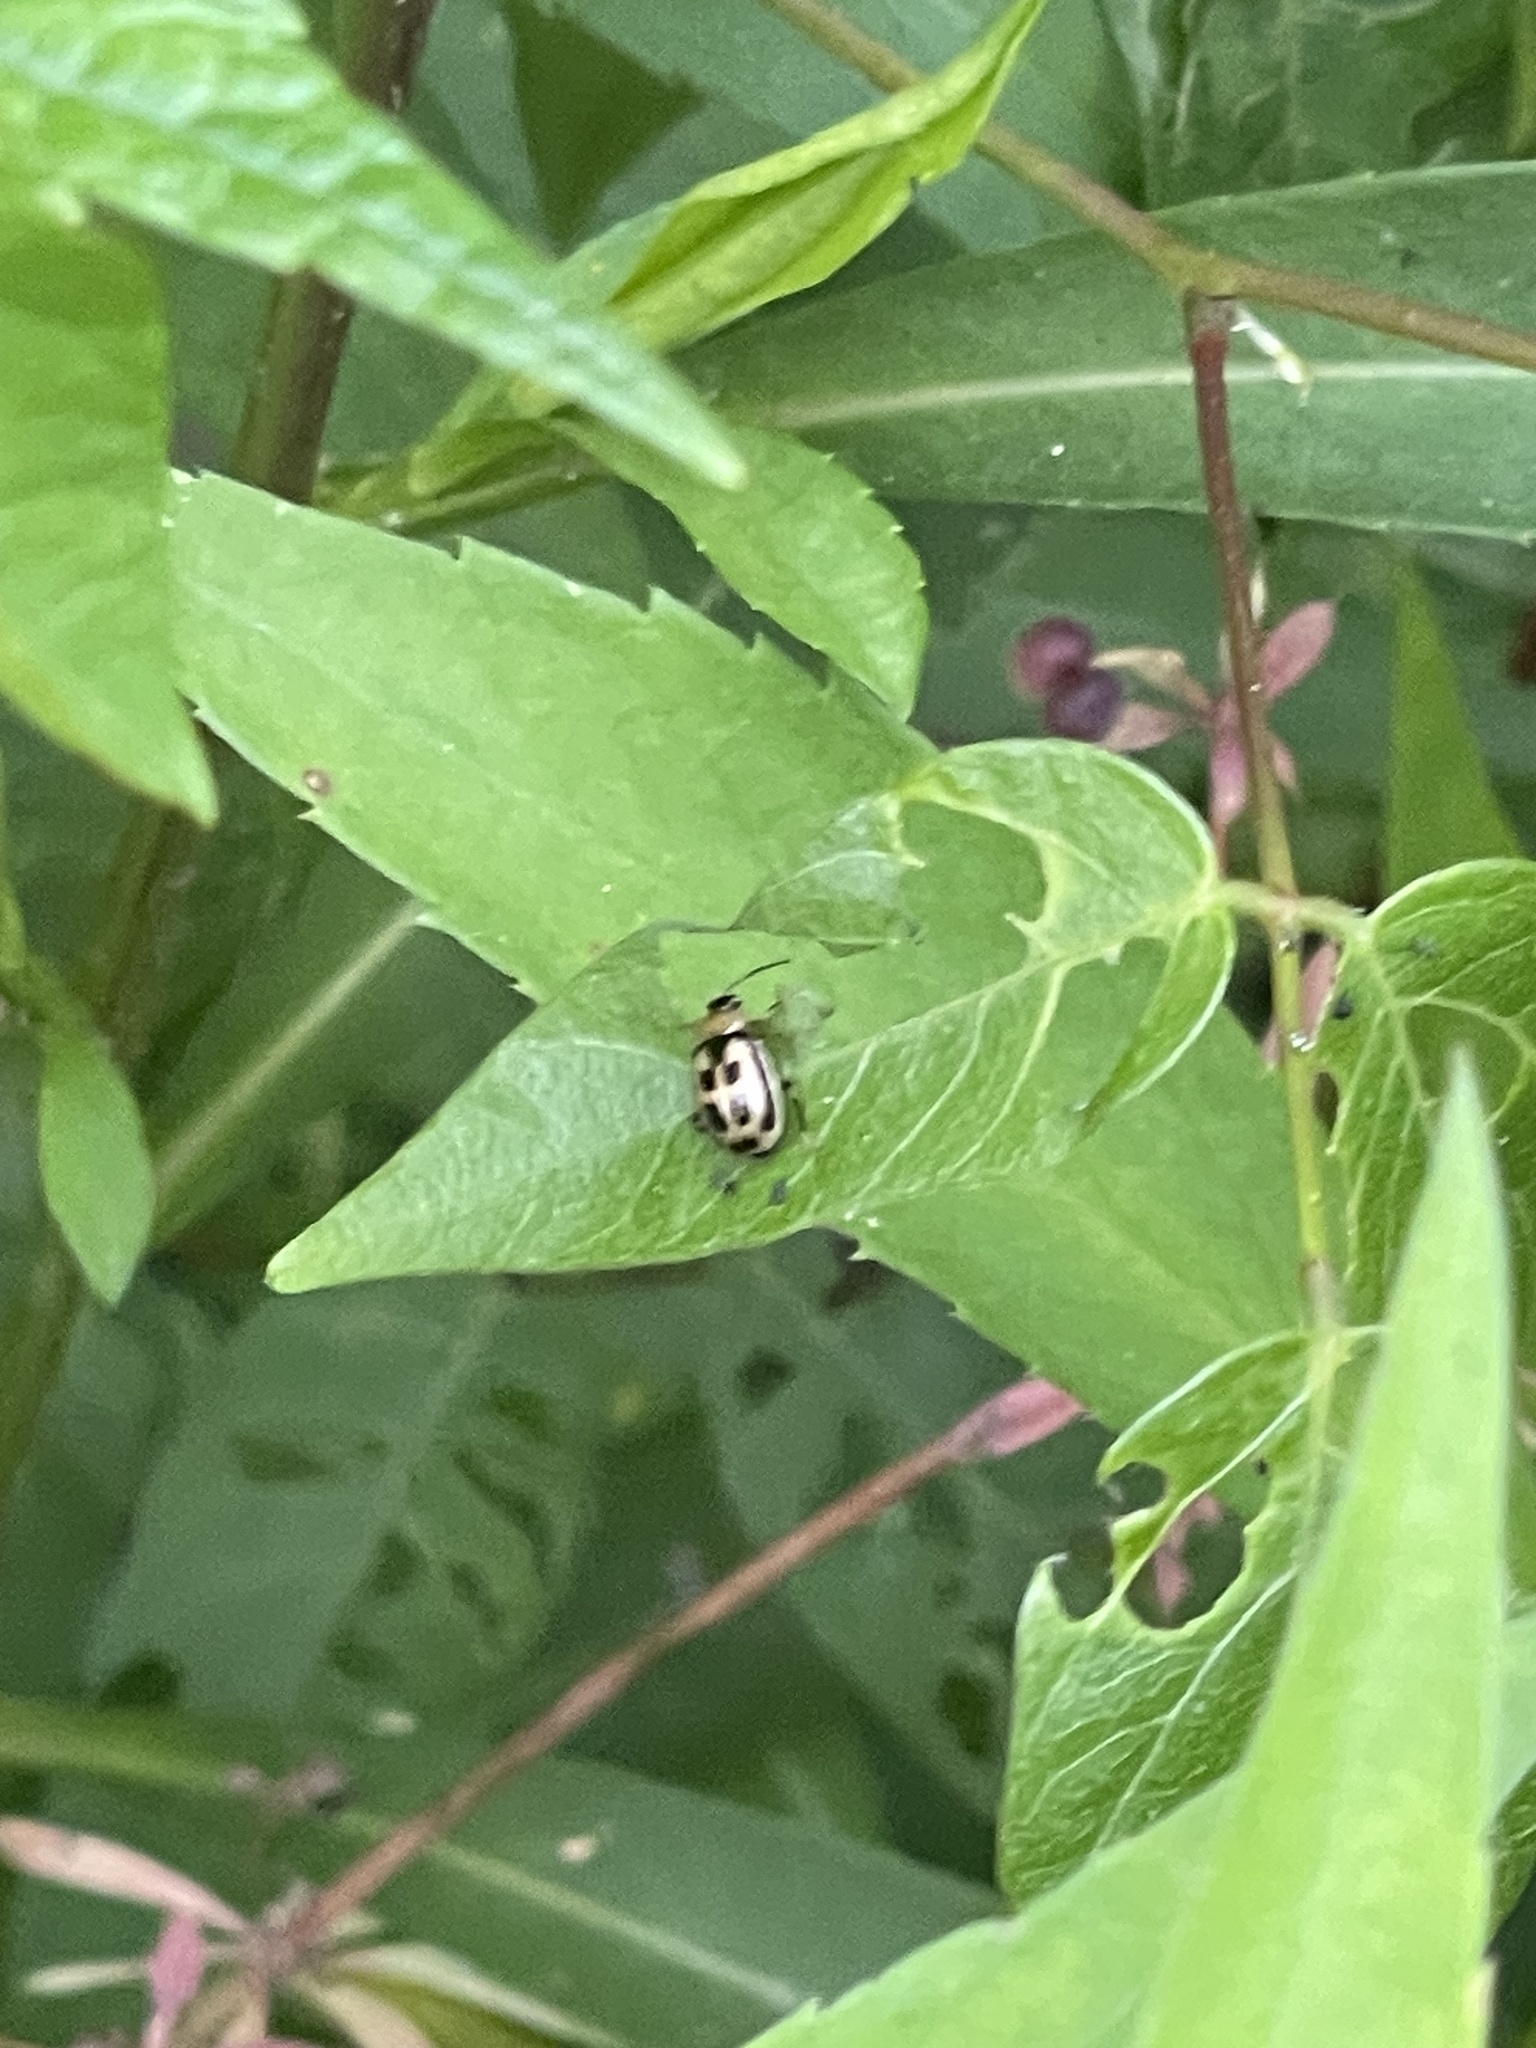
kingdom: Animalia
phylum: Arthropoda
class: Insecta
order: Coleoptera
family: Coccinellidae
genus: Propylaea
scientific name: Propylaea quatuordecimpunctata
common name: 14-spotted ladybird beetle
